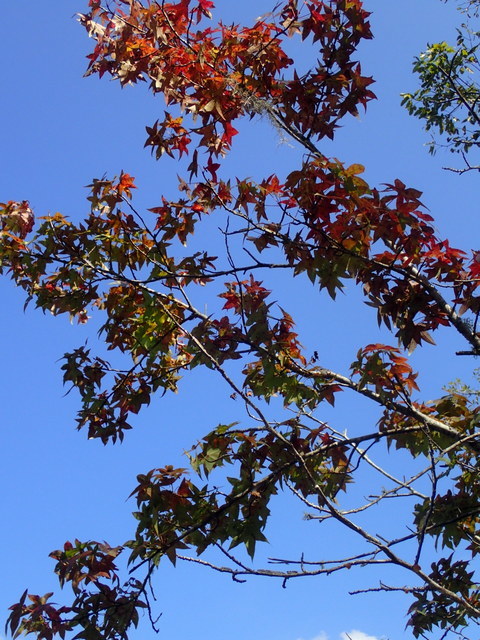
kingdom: Plantae
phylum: Tracheophyta
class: Magnoliopsida
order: Saxifragales
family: Altingiaceae
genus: Liquidambar
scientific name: Liquidambar styraciflua
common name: Sweet gum
